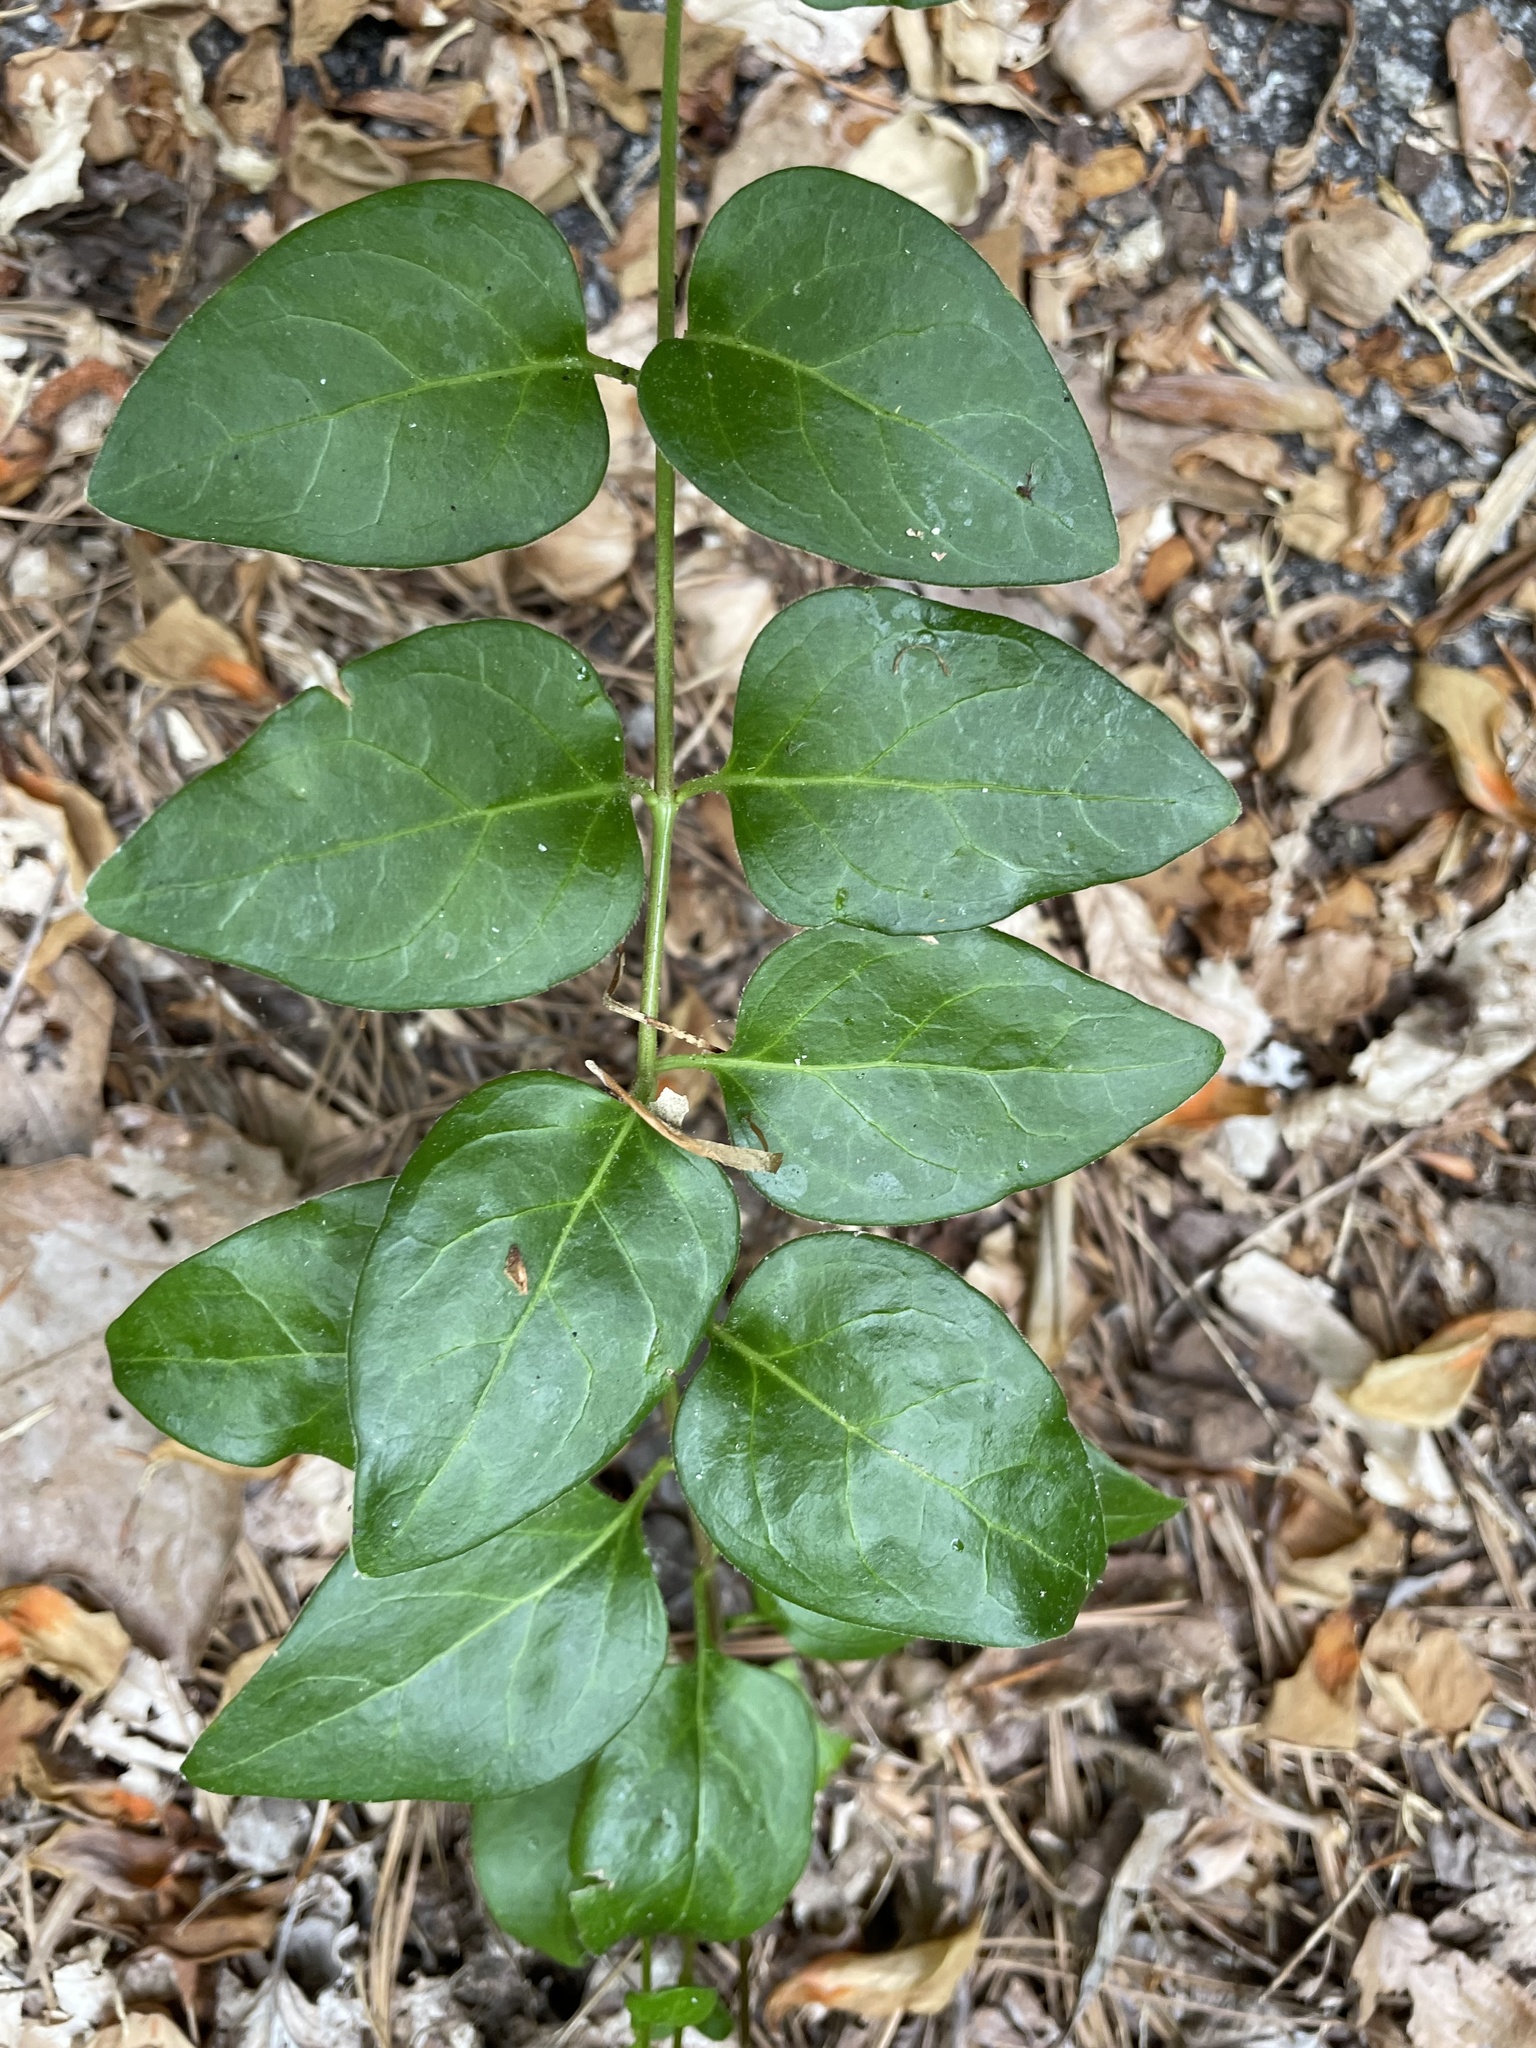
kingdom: Plantae
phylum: Tracheophyta
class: Magnoliopsida
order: Gentianales
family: Apocynaceae
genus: Vinca
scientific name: Vinca major
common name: Greater periwinkle
